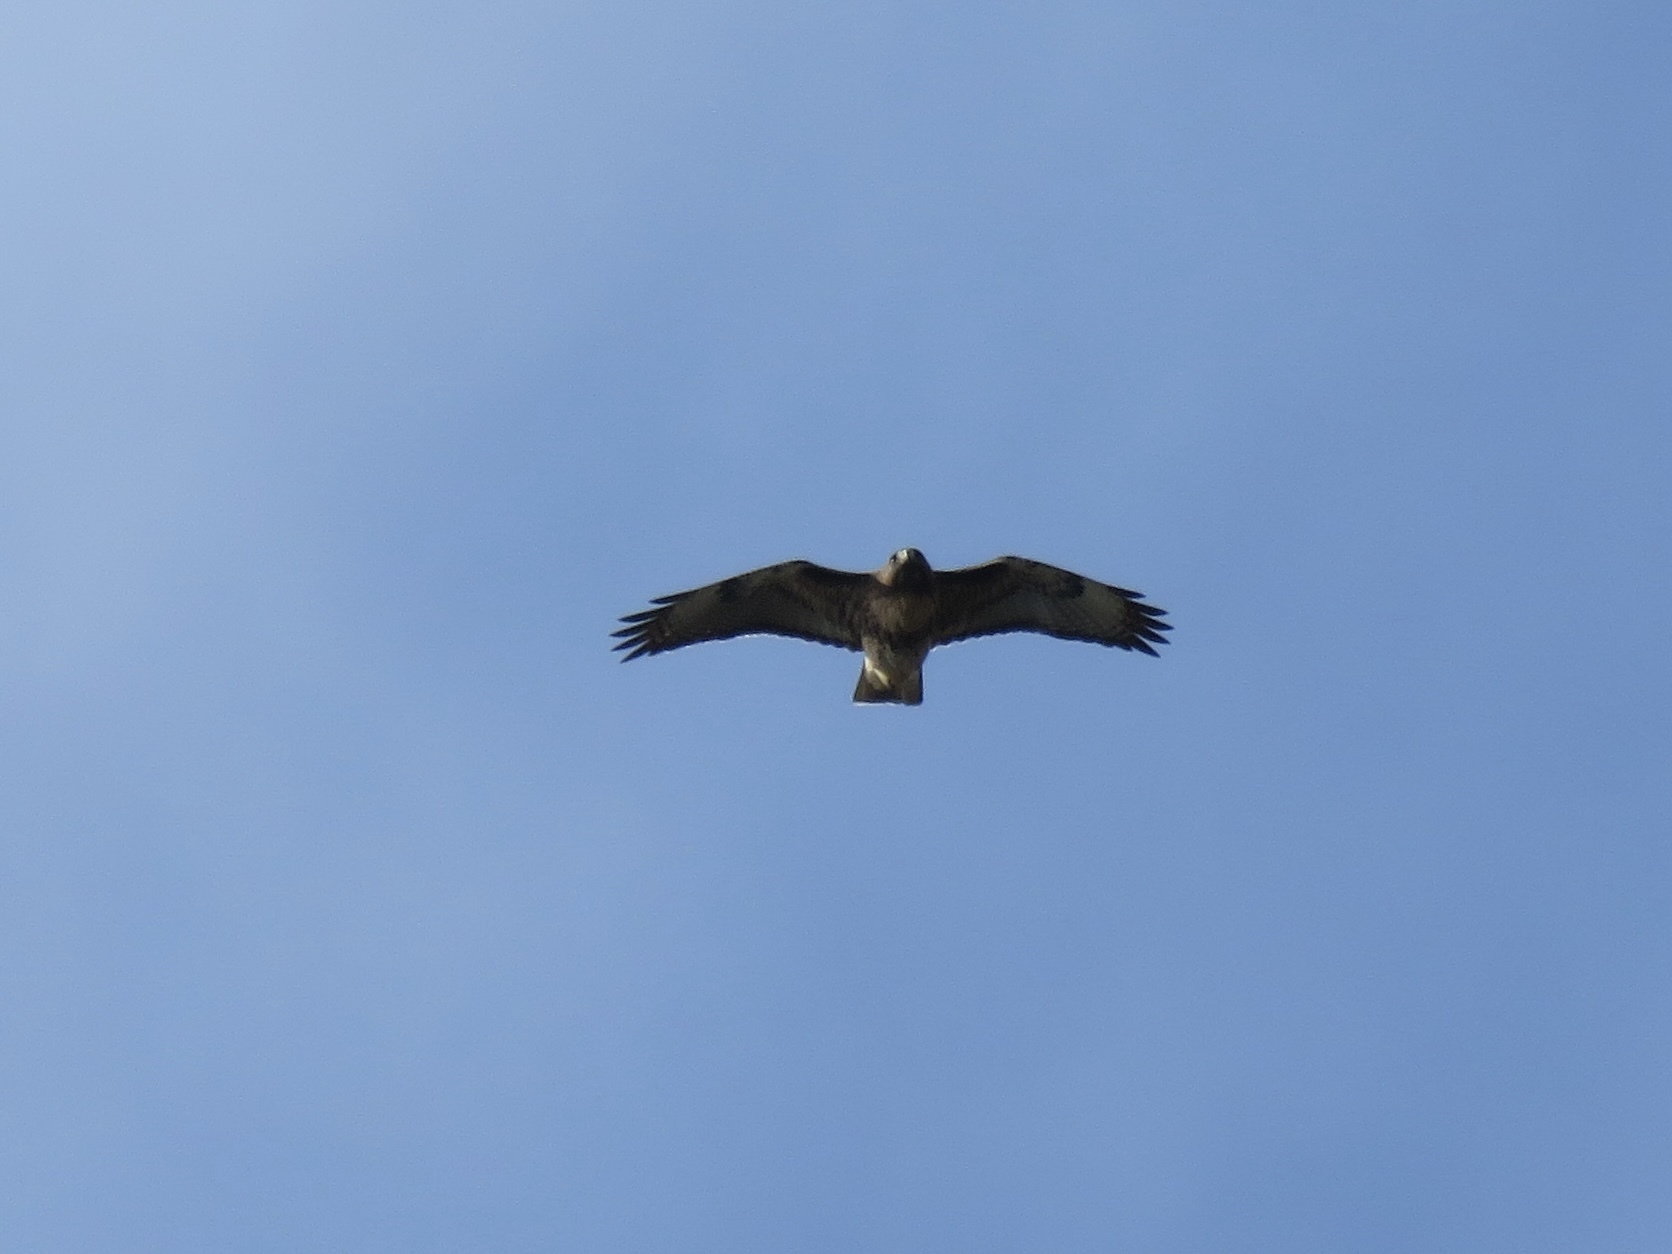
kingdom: Animalia
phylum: Chordata
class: Aves
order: Accipitriformes
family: Accipitridae
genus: Buteo
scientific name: Buteo jamaicensis
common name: Red-tailed hawk
